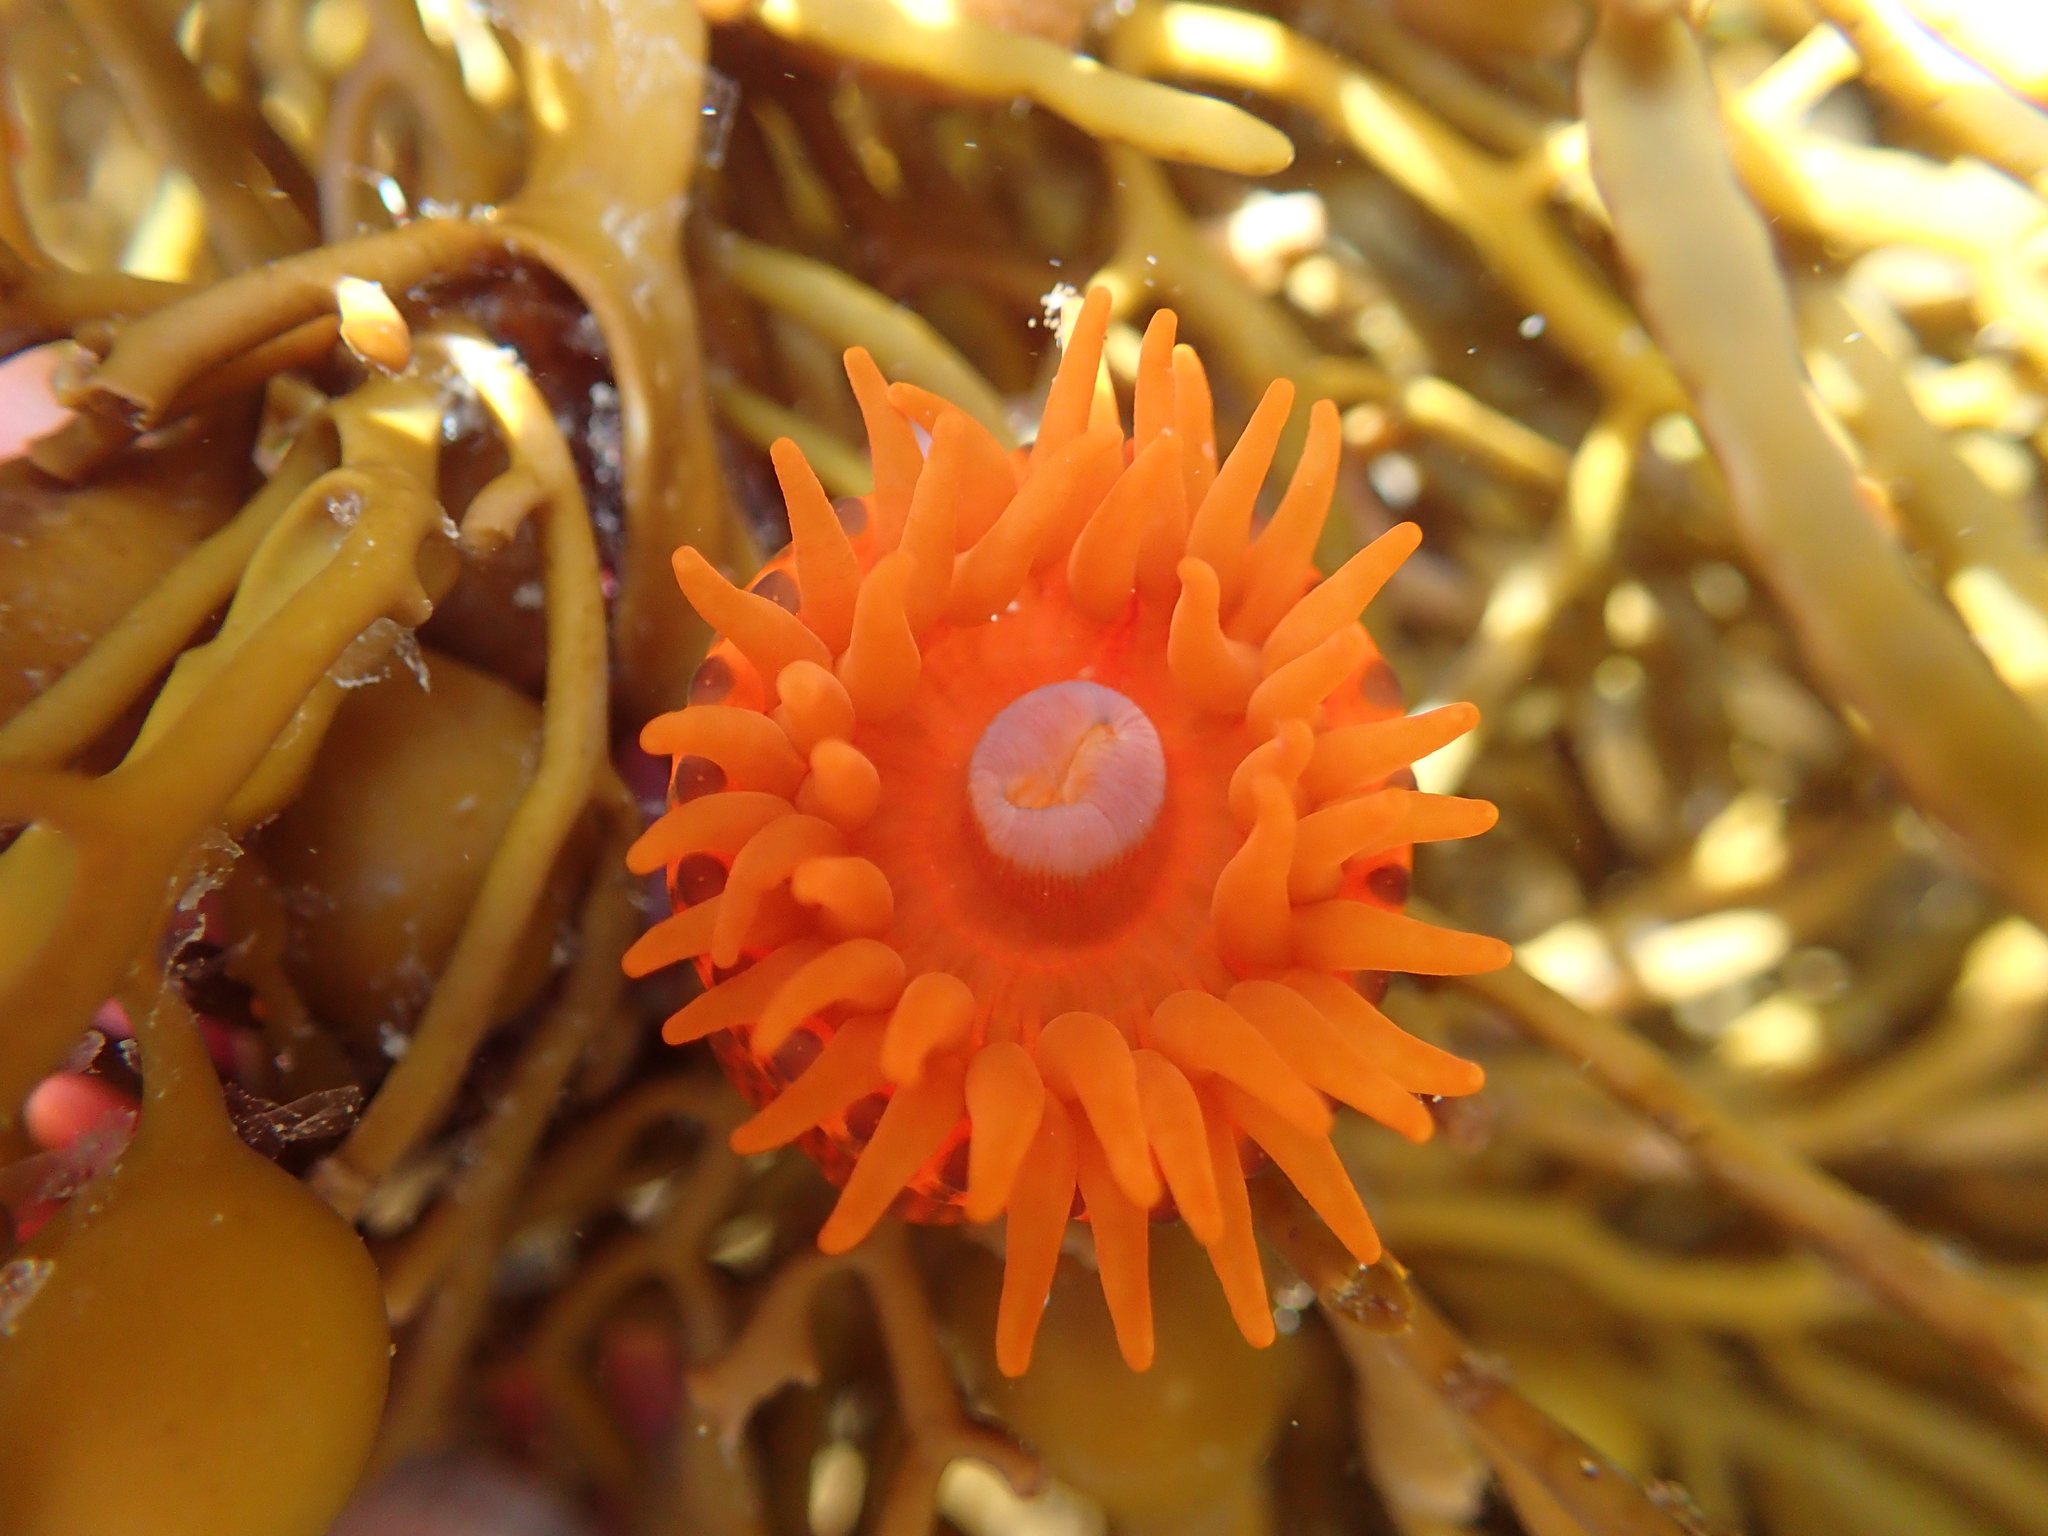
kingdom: Animalia
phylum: Cnidaria
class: Anthozoa
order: Actiniaria
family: Actiniidae
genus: Epiactis
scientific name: Epiactis
